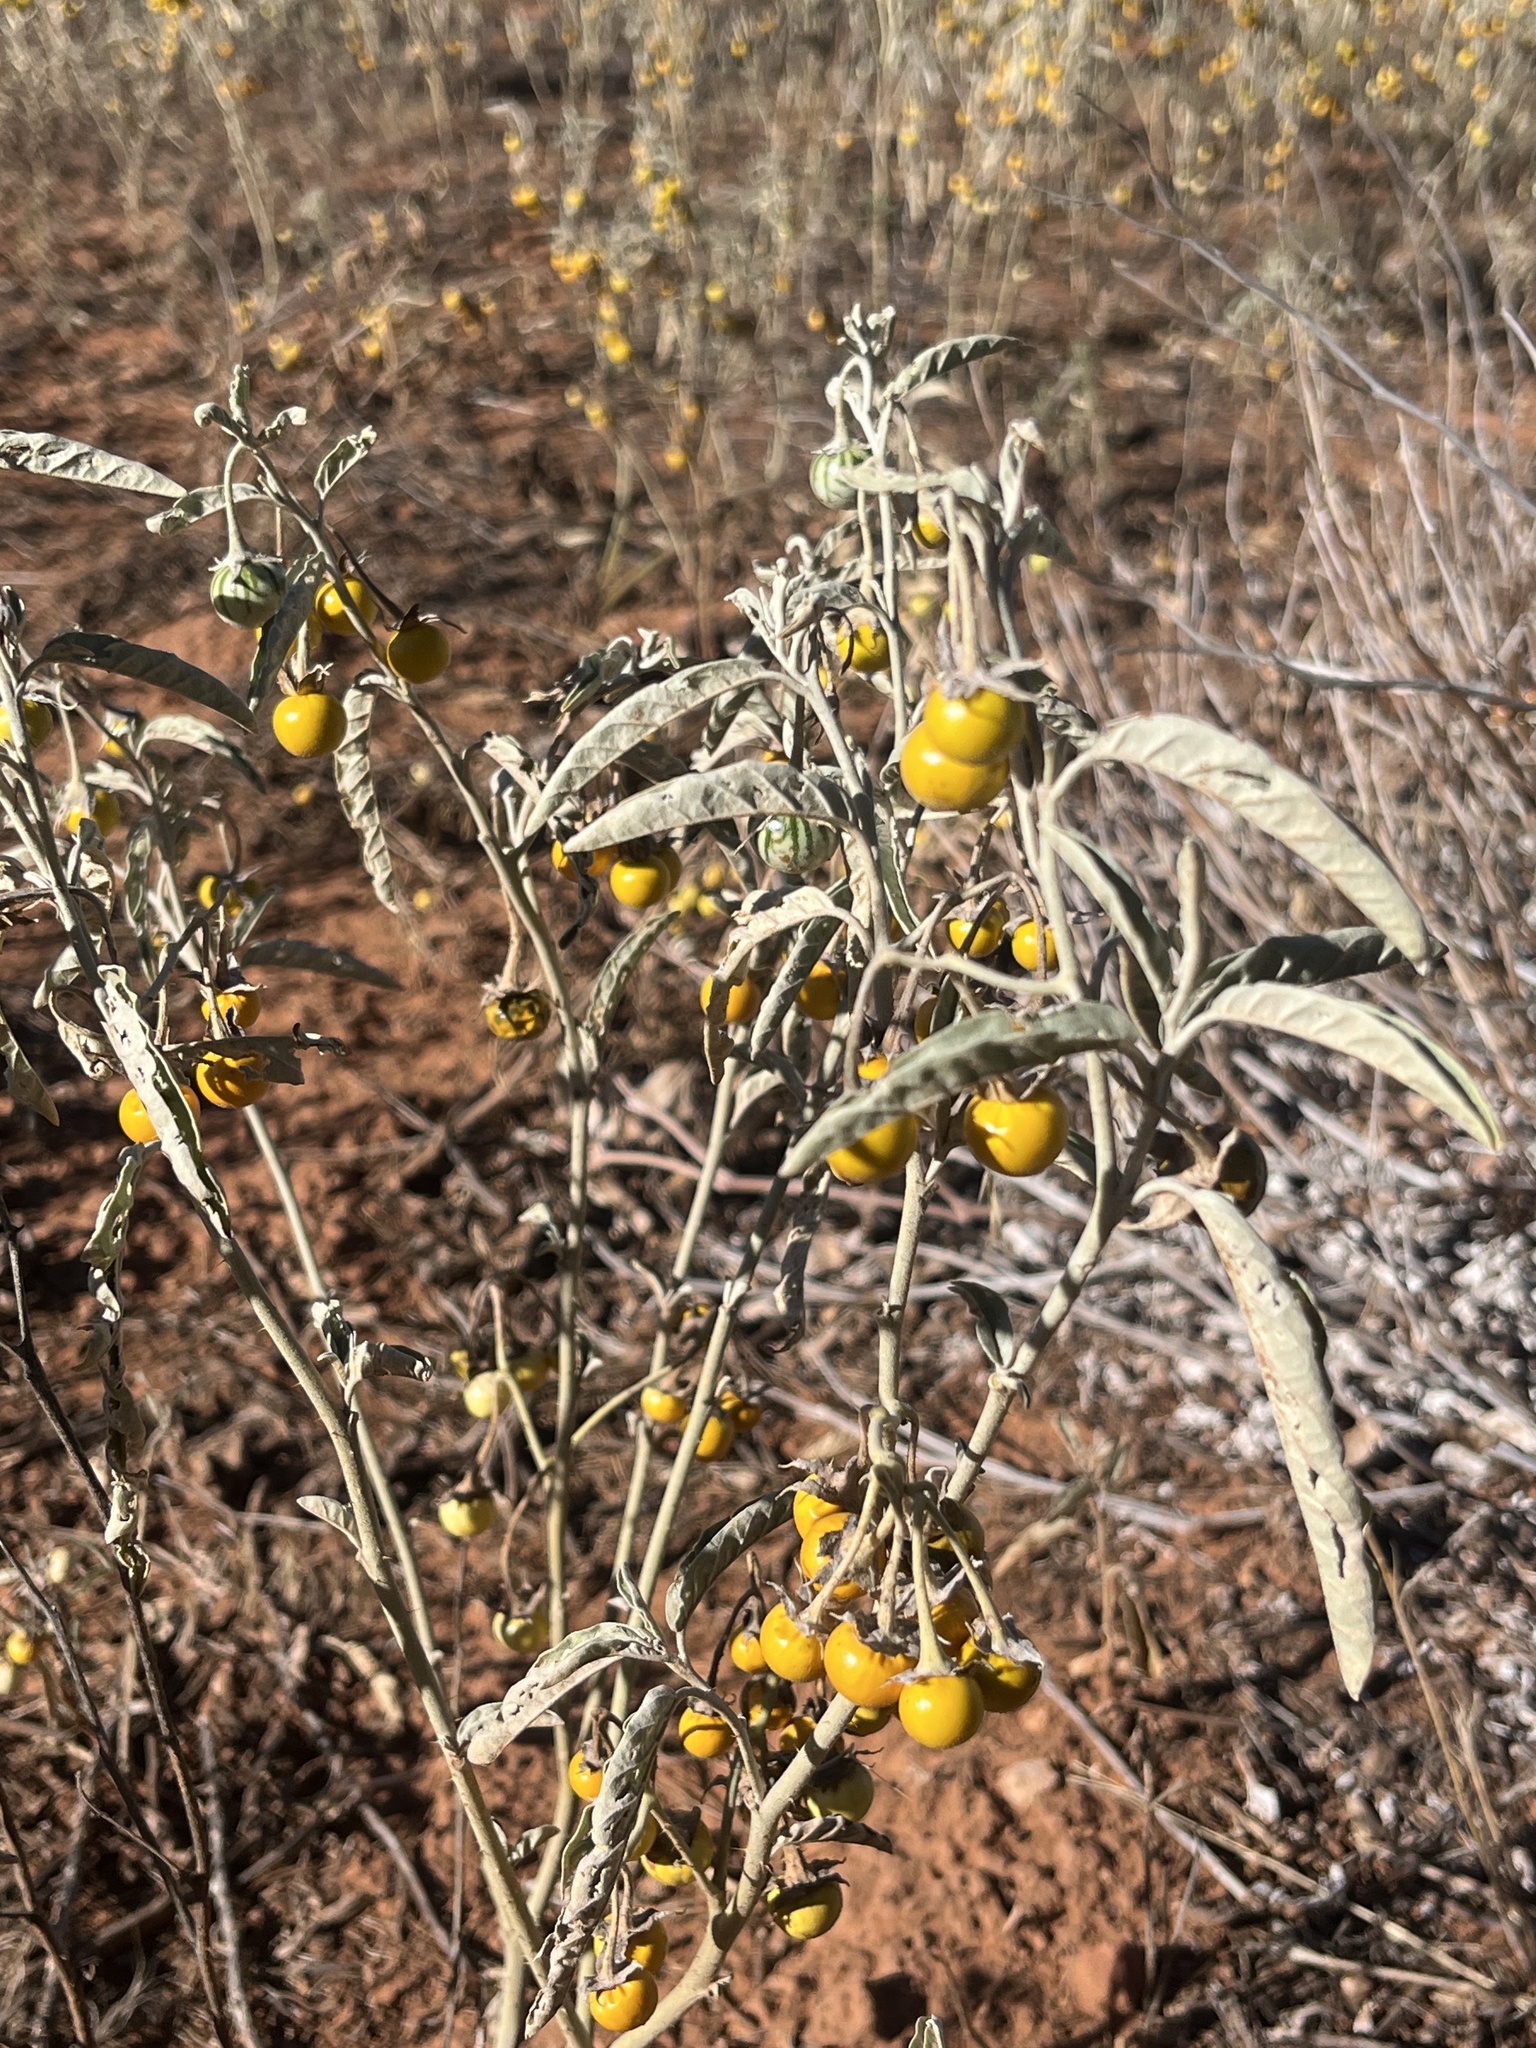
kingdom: Plantae
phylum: Tracheophyta
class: Magnoliopsida
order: Solanales
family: Solanaceae
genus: Solanum
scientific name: Solanum elaeagnifolium
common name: Silverleaf nightshade
